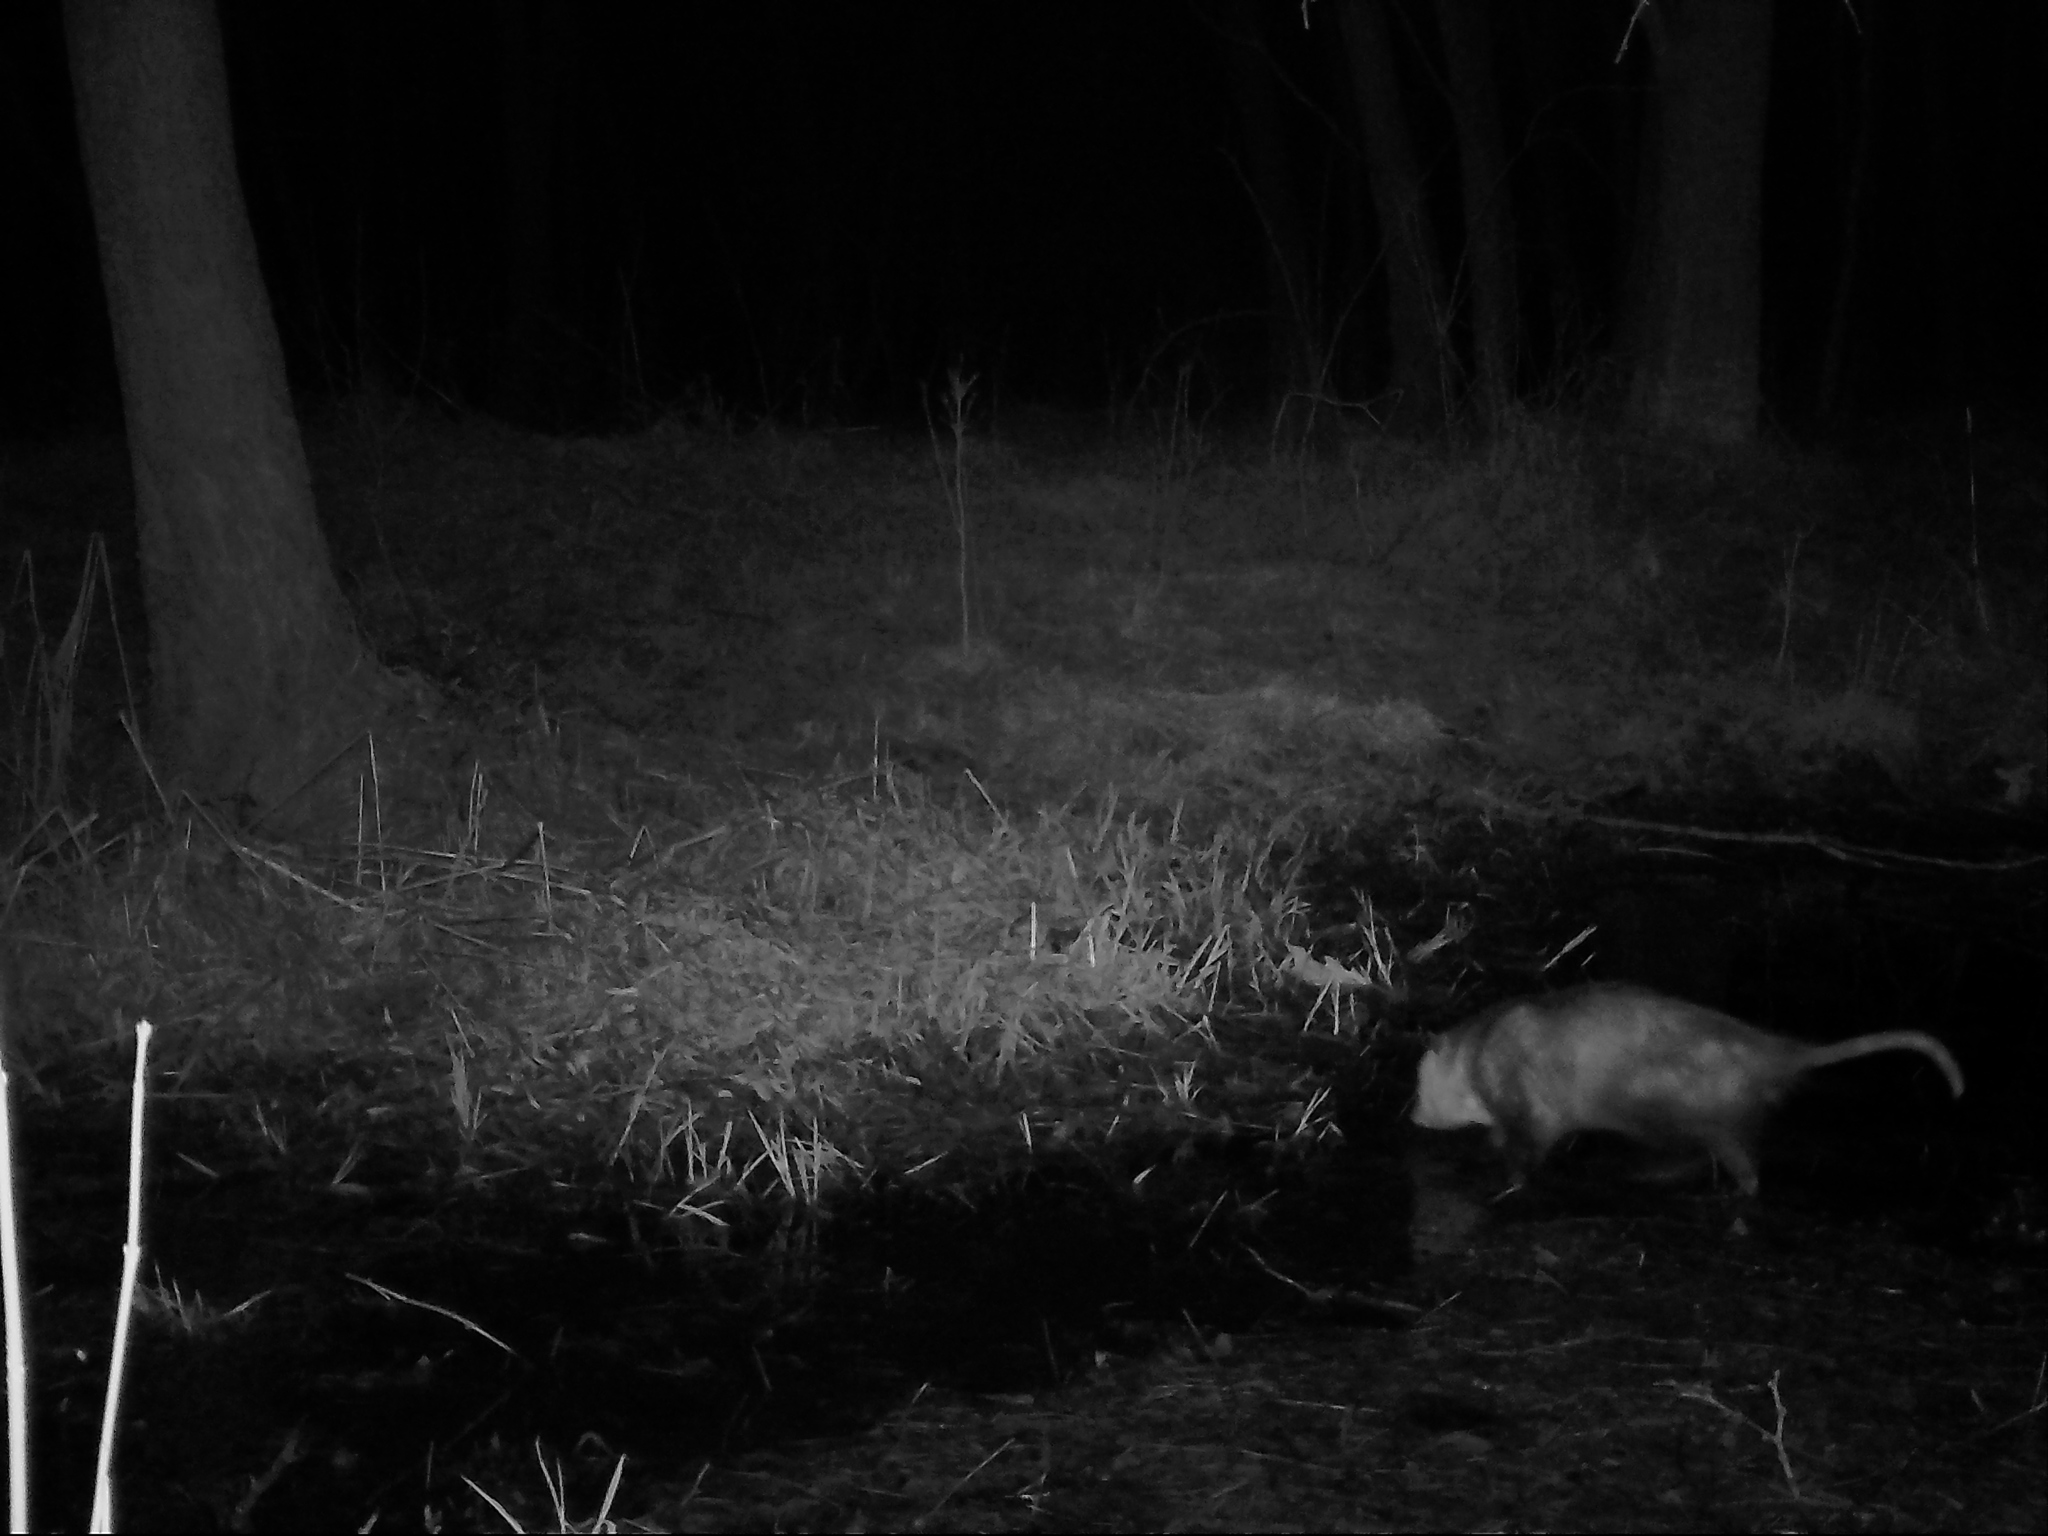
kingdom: Animalia
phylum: Chordata
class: Mammalia
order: Didelphimorphia
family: Didelphidae
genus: Didelphis
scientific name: Didelphis virginiana
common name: Virginia opossum
